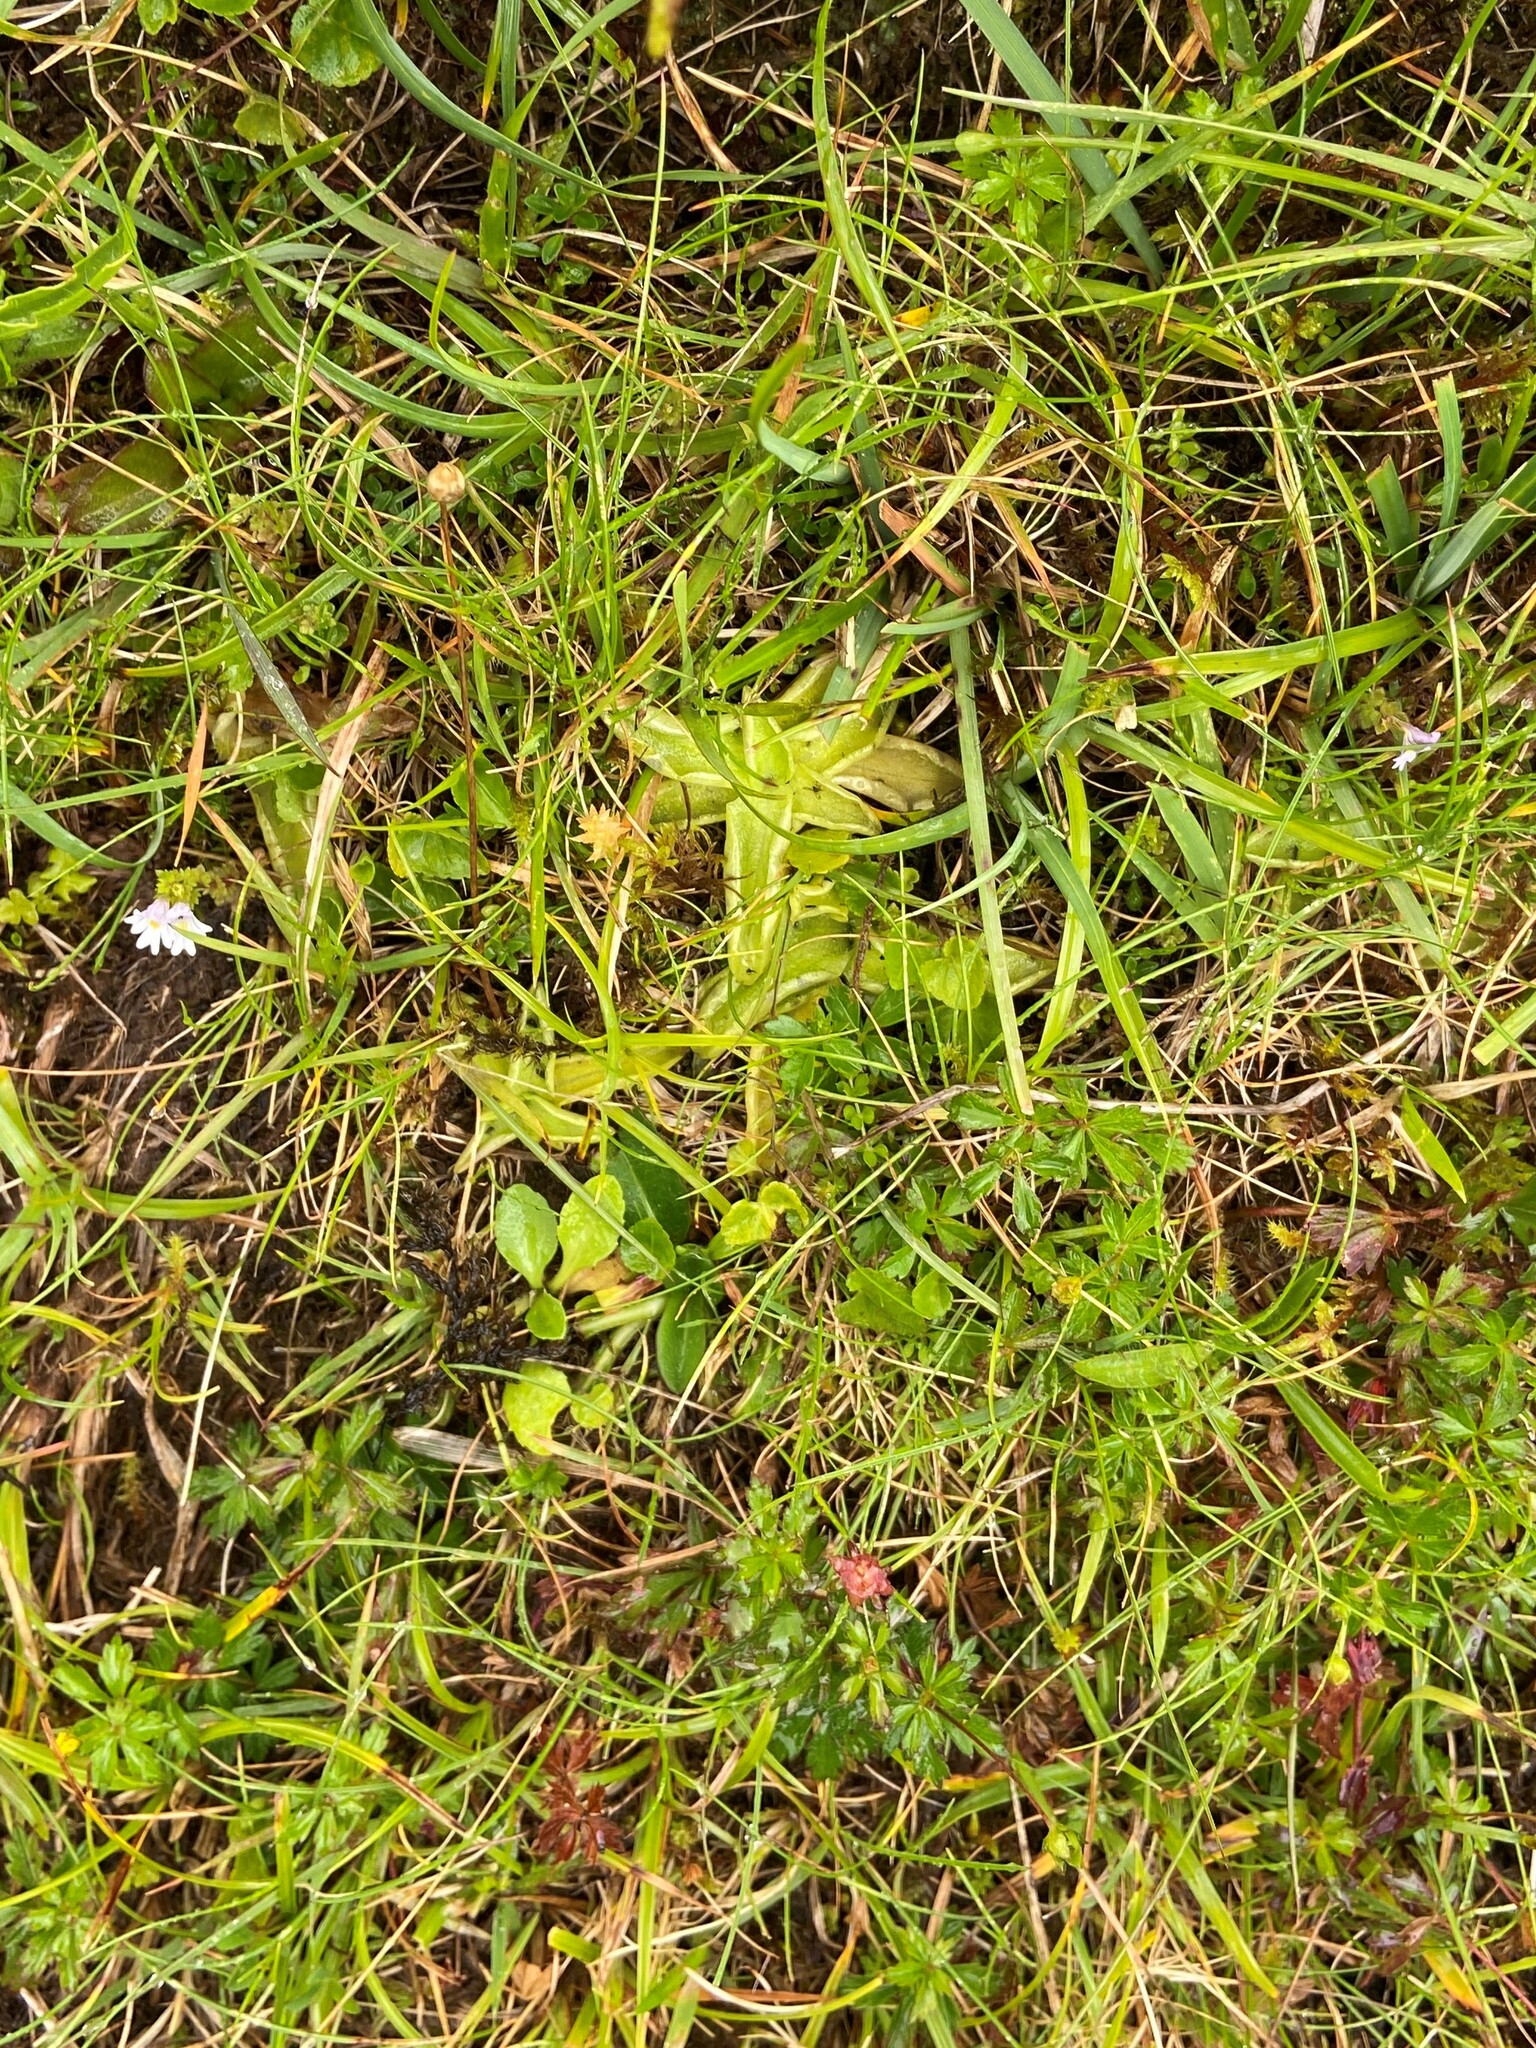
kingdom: Plantae
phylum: Tracheophyta
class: Magnoliopsida
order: Lamiales
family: Lentibulariaceae
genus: Pinguicula
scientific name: Pinguicula vulgaris
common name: Common butterwort
